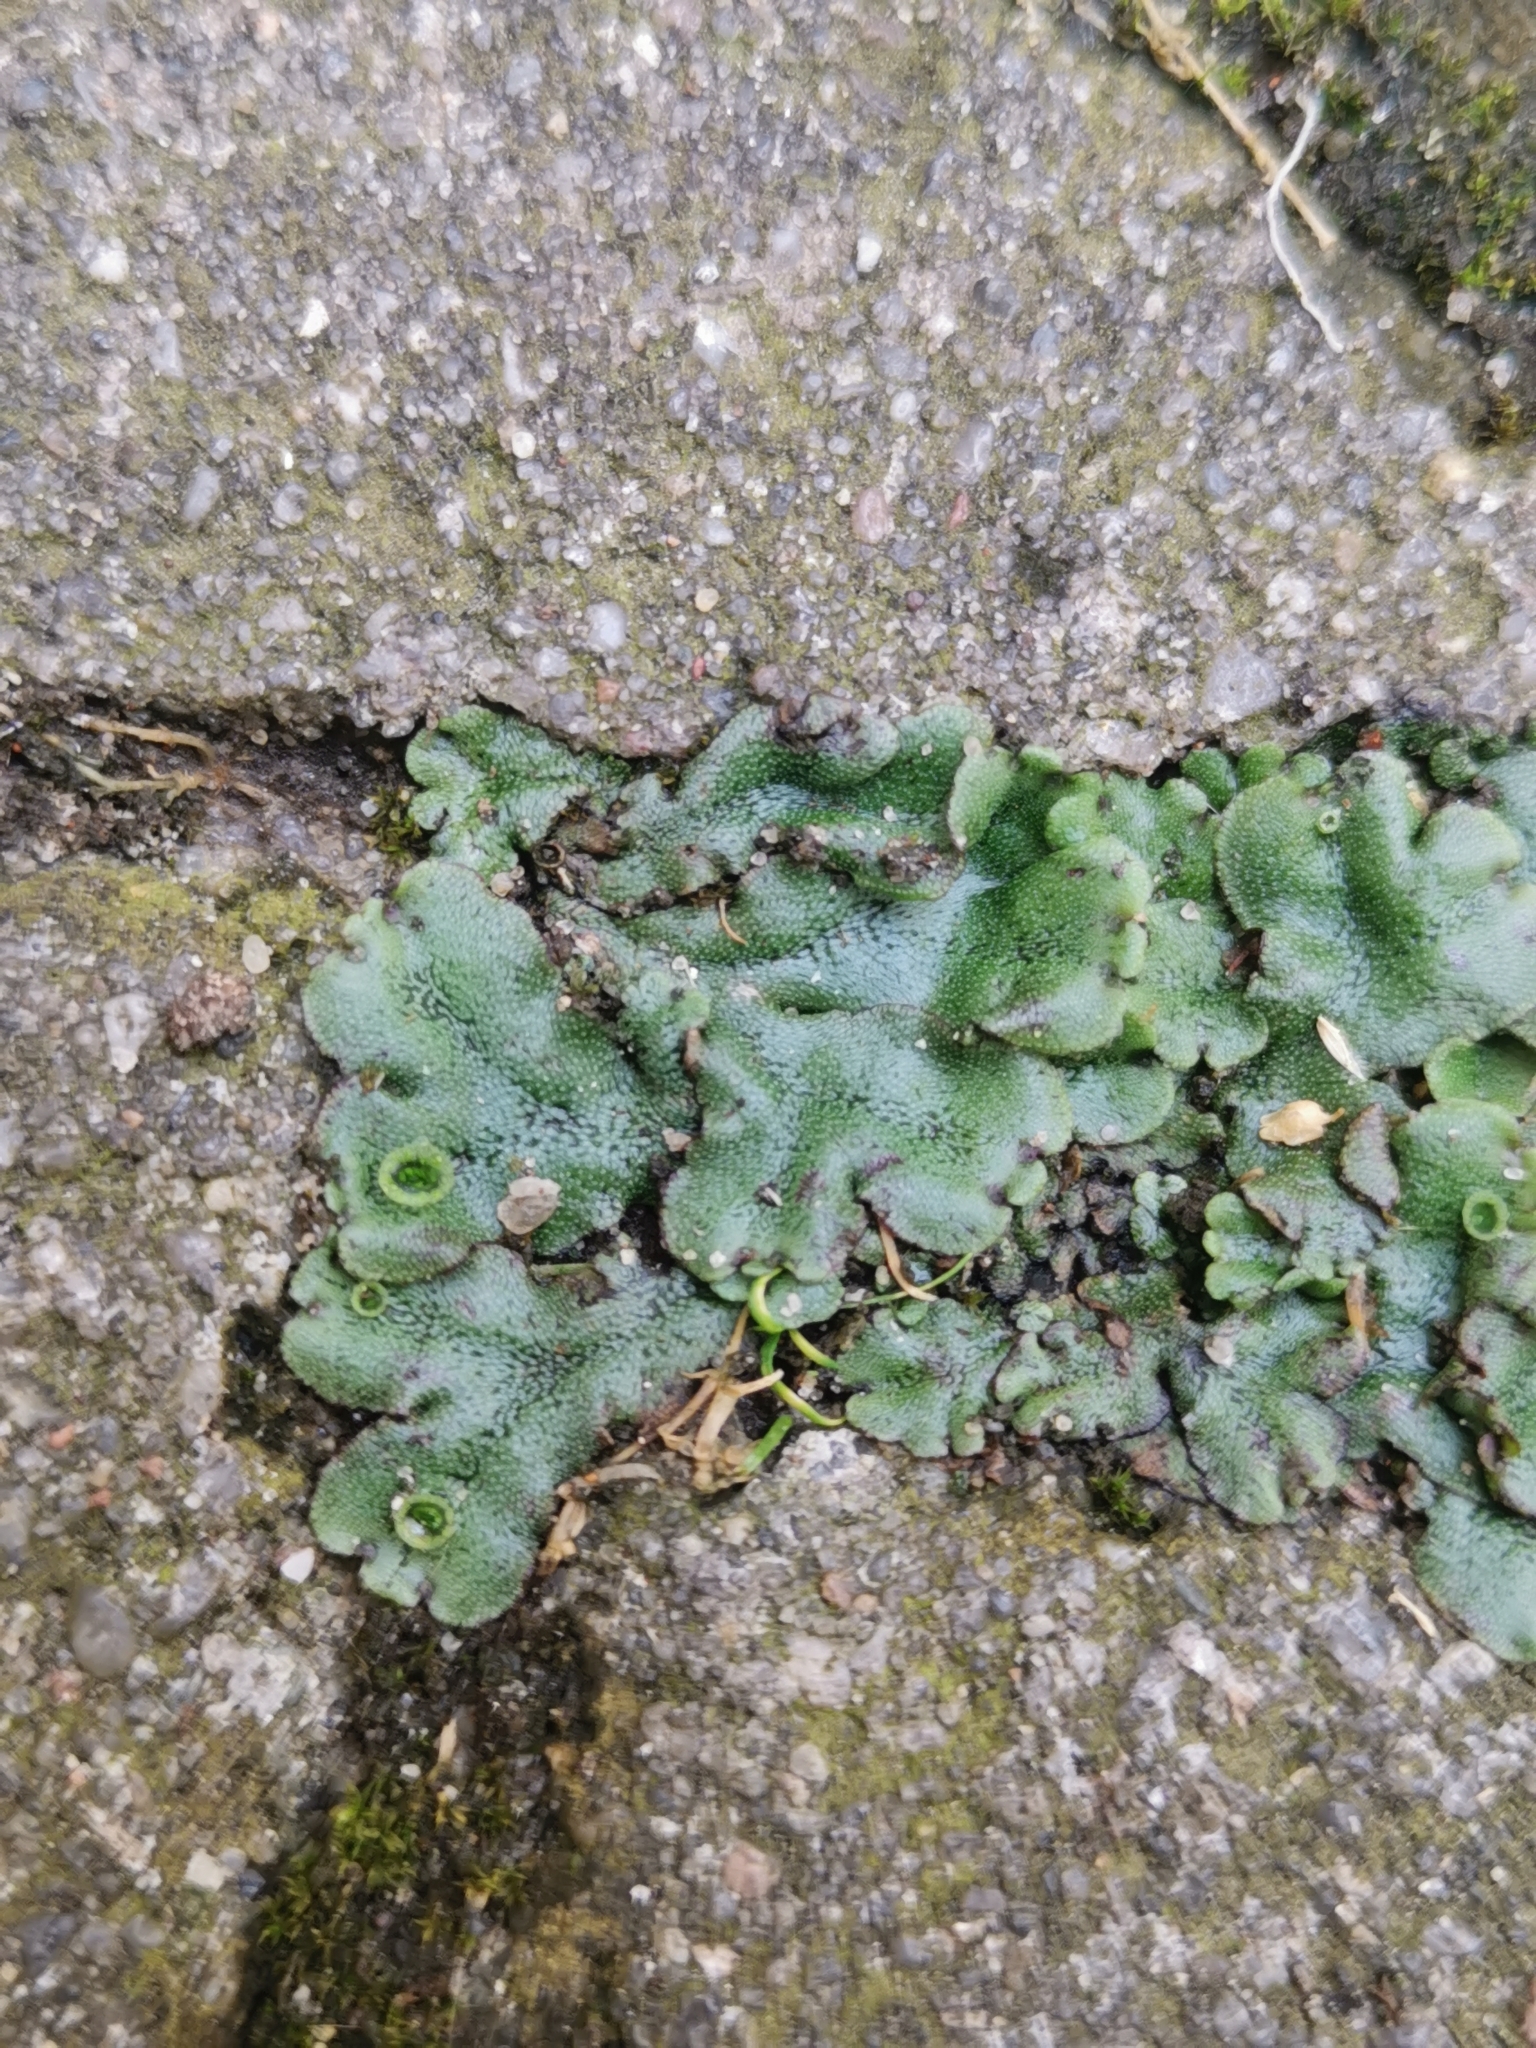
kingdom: Plantae
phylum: Marchantiophyta
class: Marchantiopsida
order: Marchantiales
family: Marchantiaceae
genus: Marchantia
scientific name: Marchantia polymorpha
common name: Common liverwort
